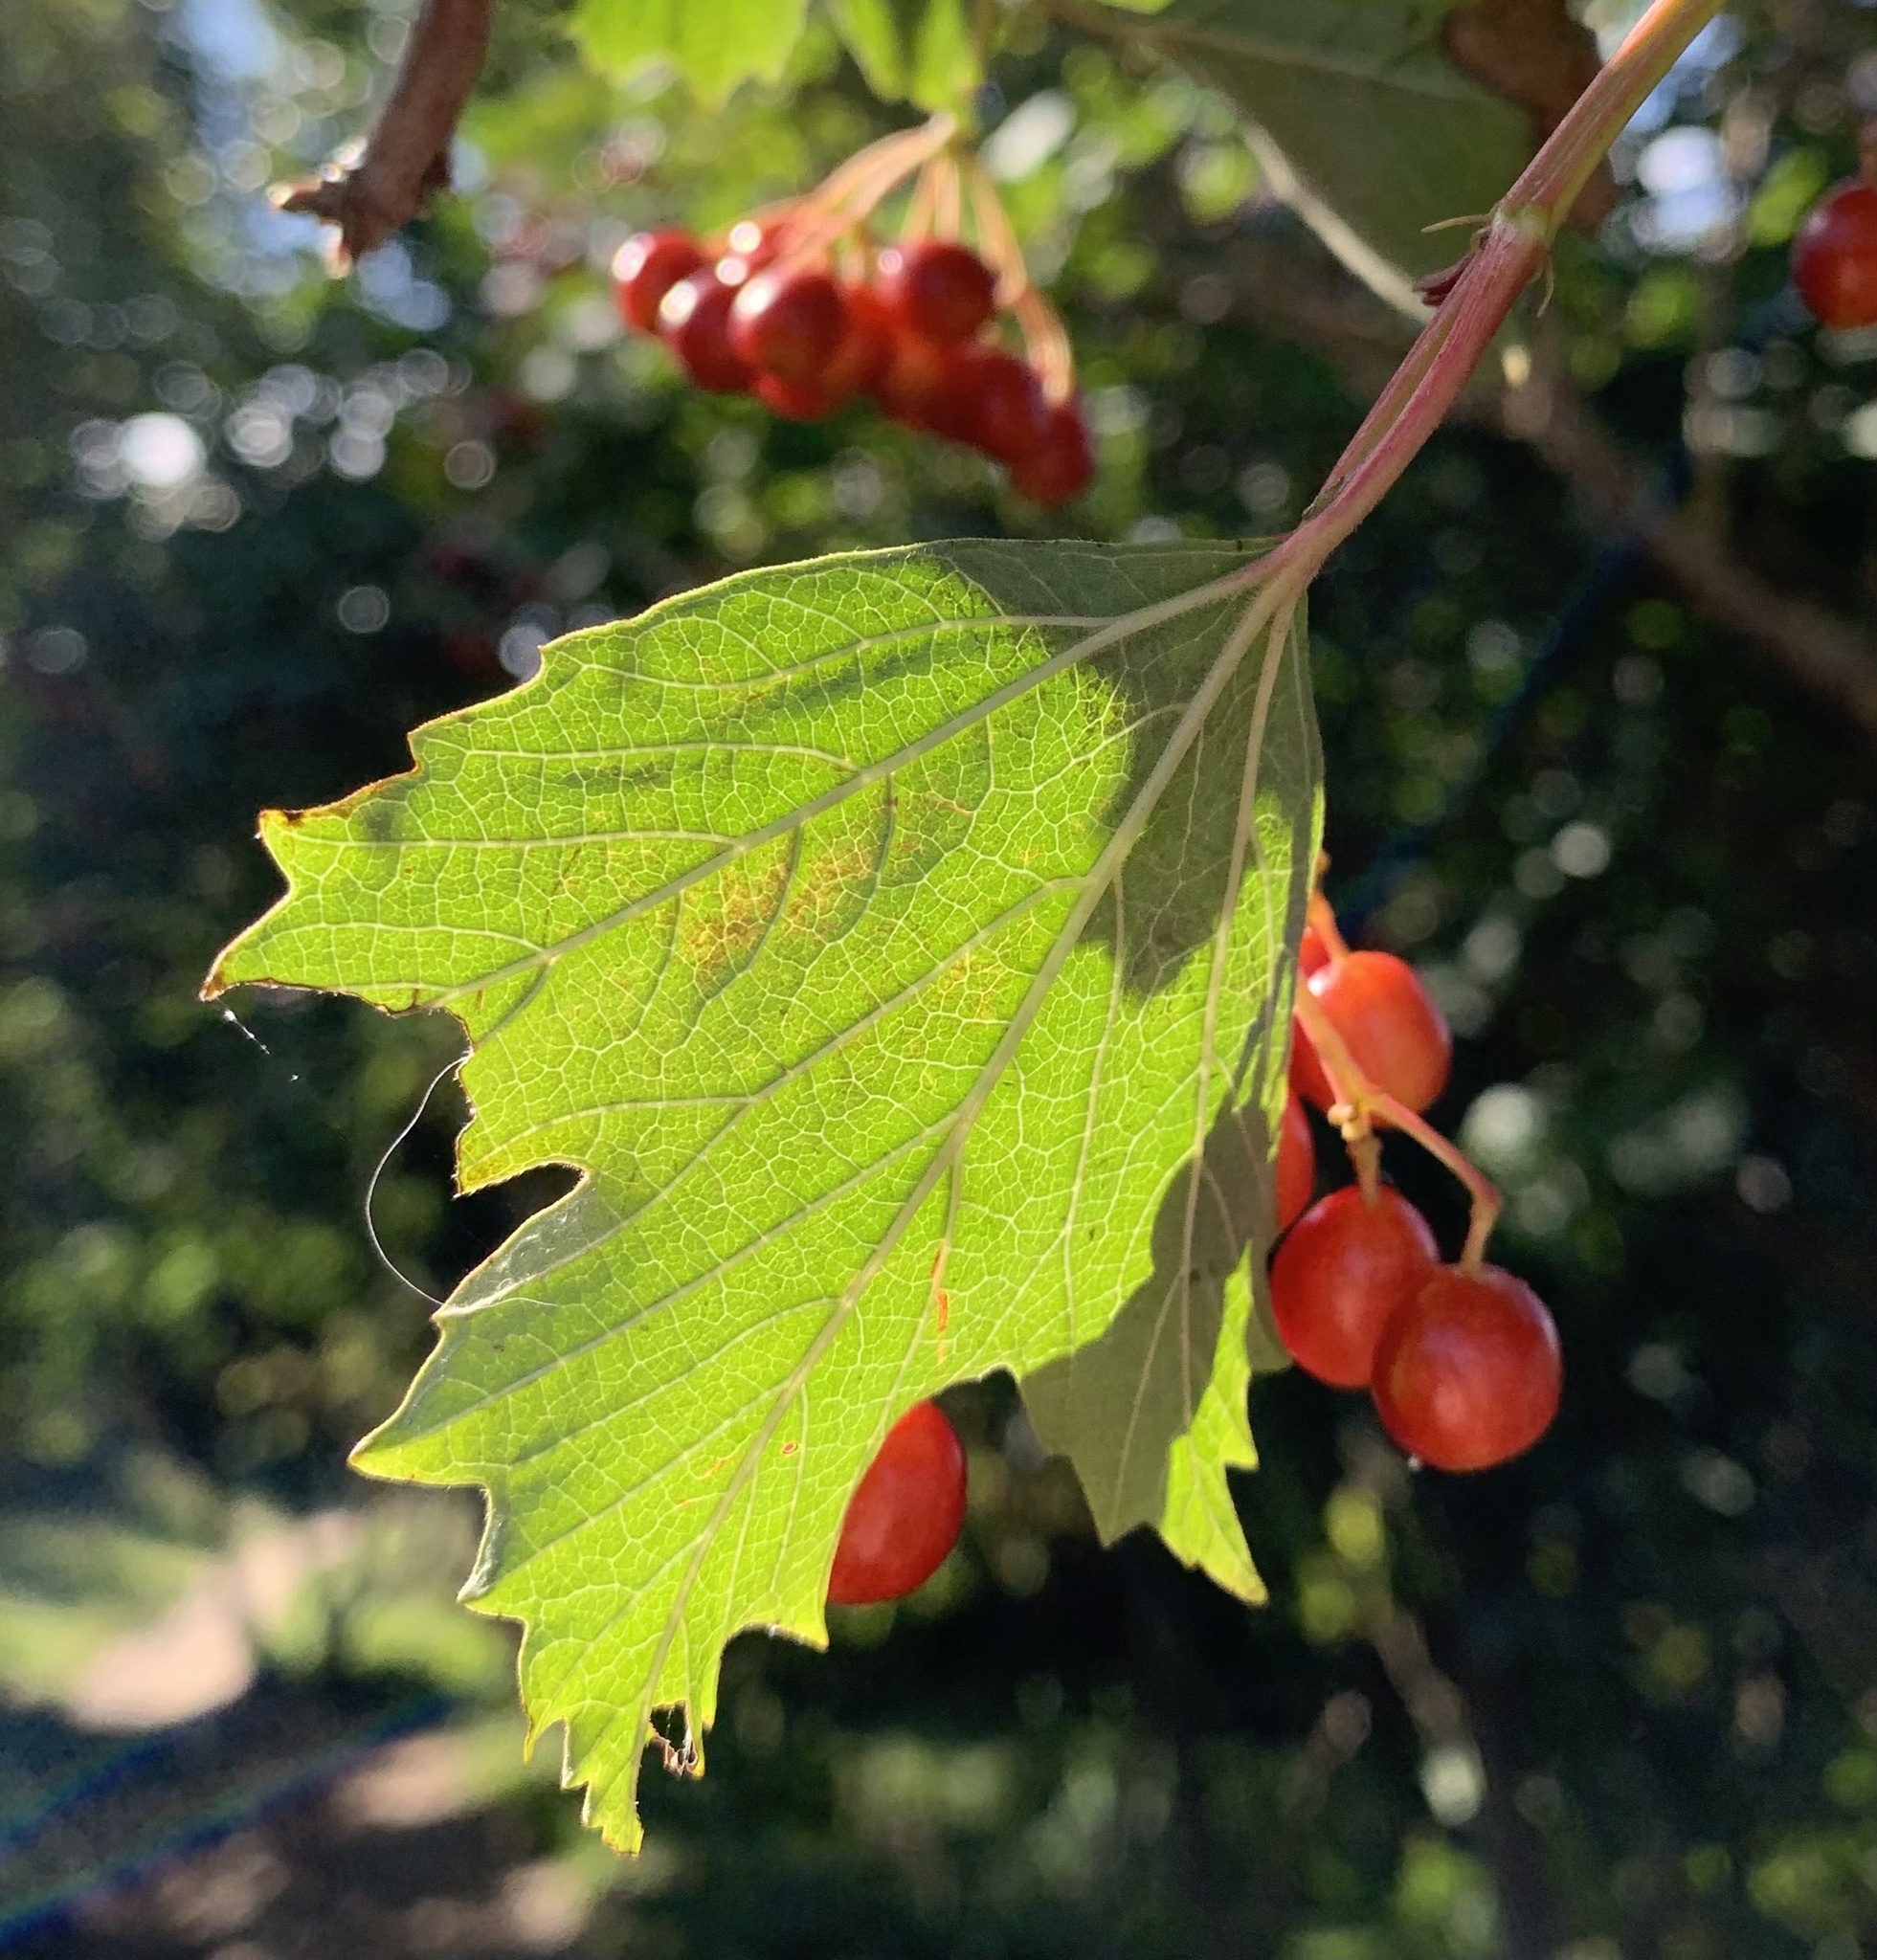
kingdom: Plantae
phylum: Tracheophyta
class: Magnoliopsida
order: Dipsacales
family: Viburnaceae
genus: Viburnum
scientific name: Viburnum opulus
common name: Guelder-rose
